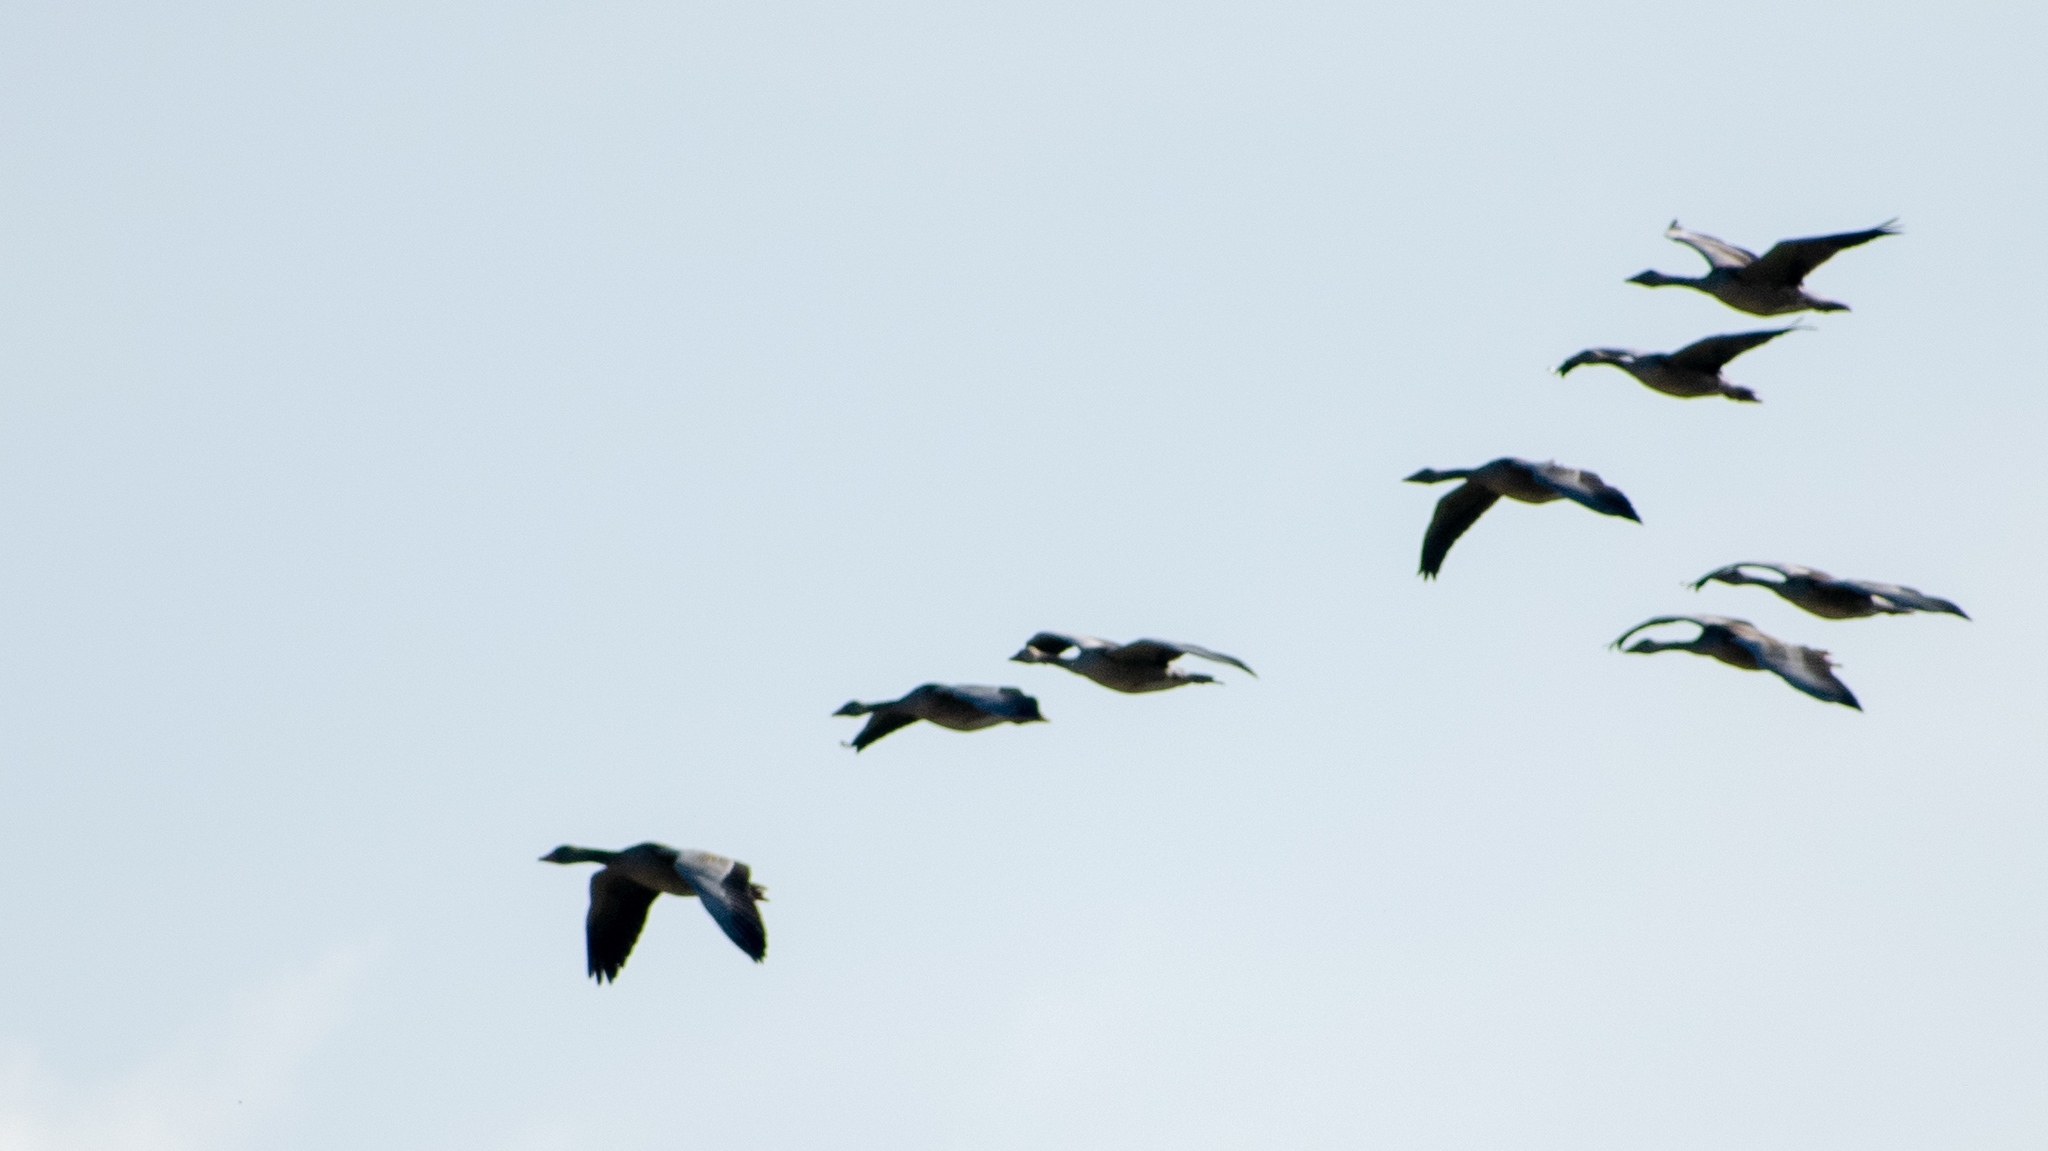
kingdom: Animalia
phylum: Chordata
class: Aves
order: Anseriformes
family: Anatidae
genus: Anser
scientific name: Anser anser
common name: Greylag goose
